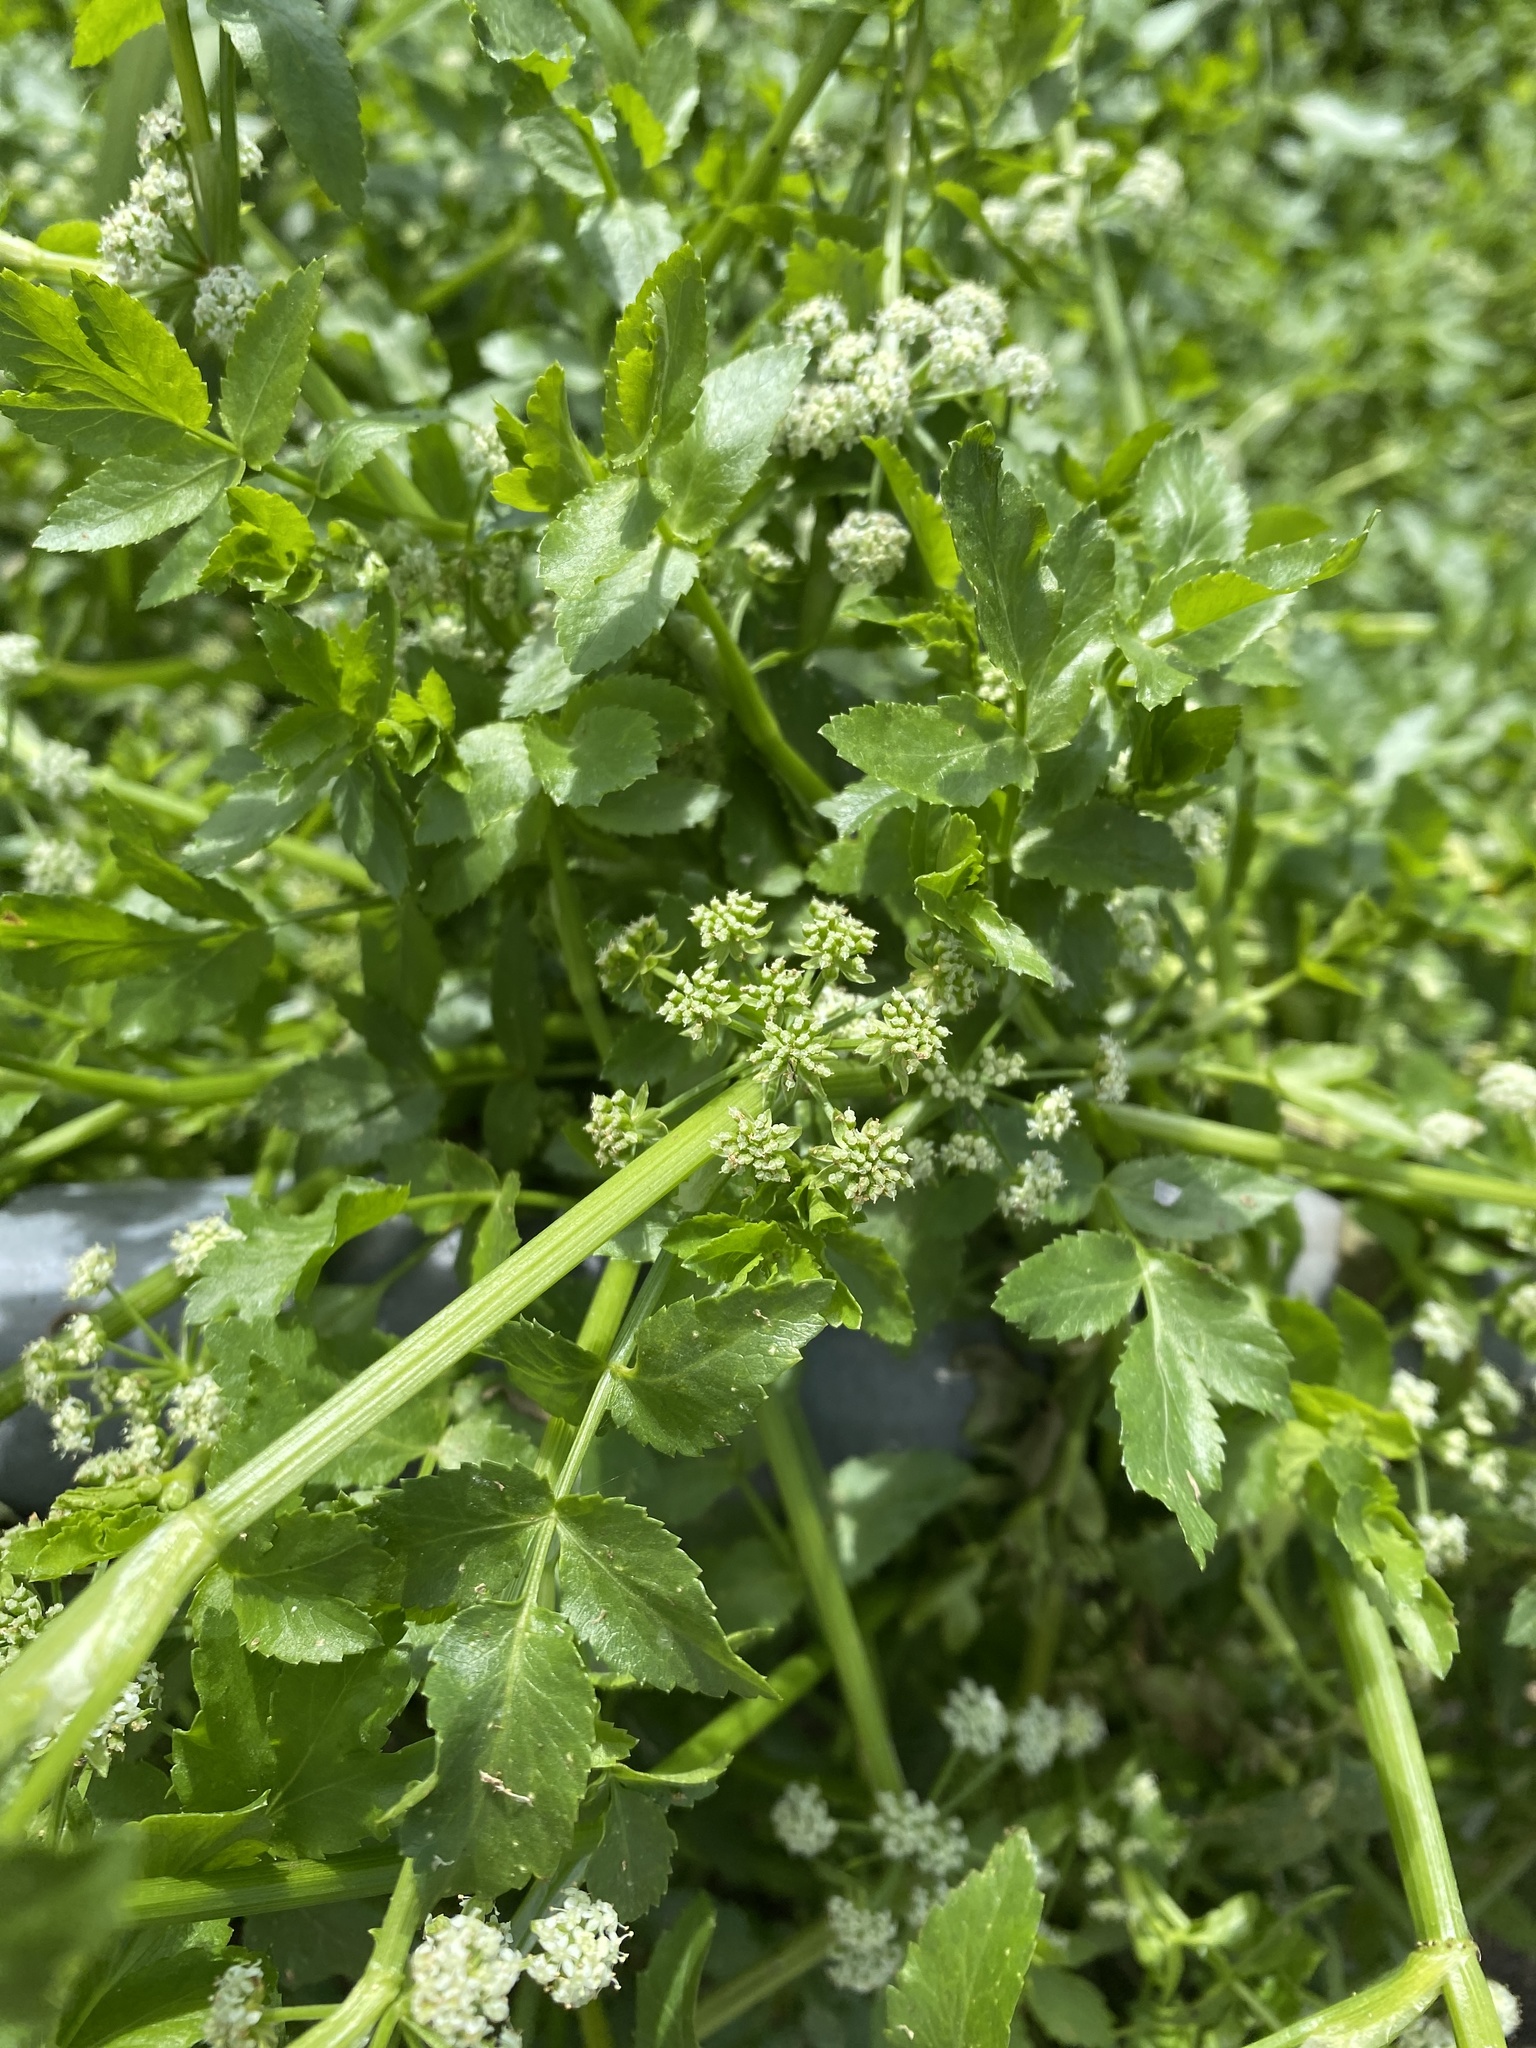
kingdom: Plantae
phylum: Tracheophyta
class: Magnoliopsida
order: Apiales
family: Apiaceae
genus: Helosciadium
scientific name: Helosciadium nodiflorum
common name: Fool's-watercress
